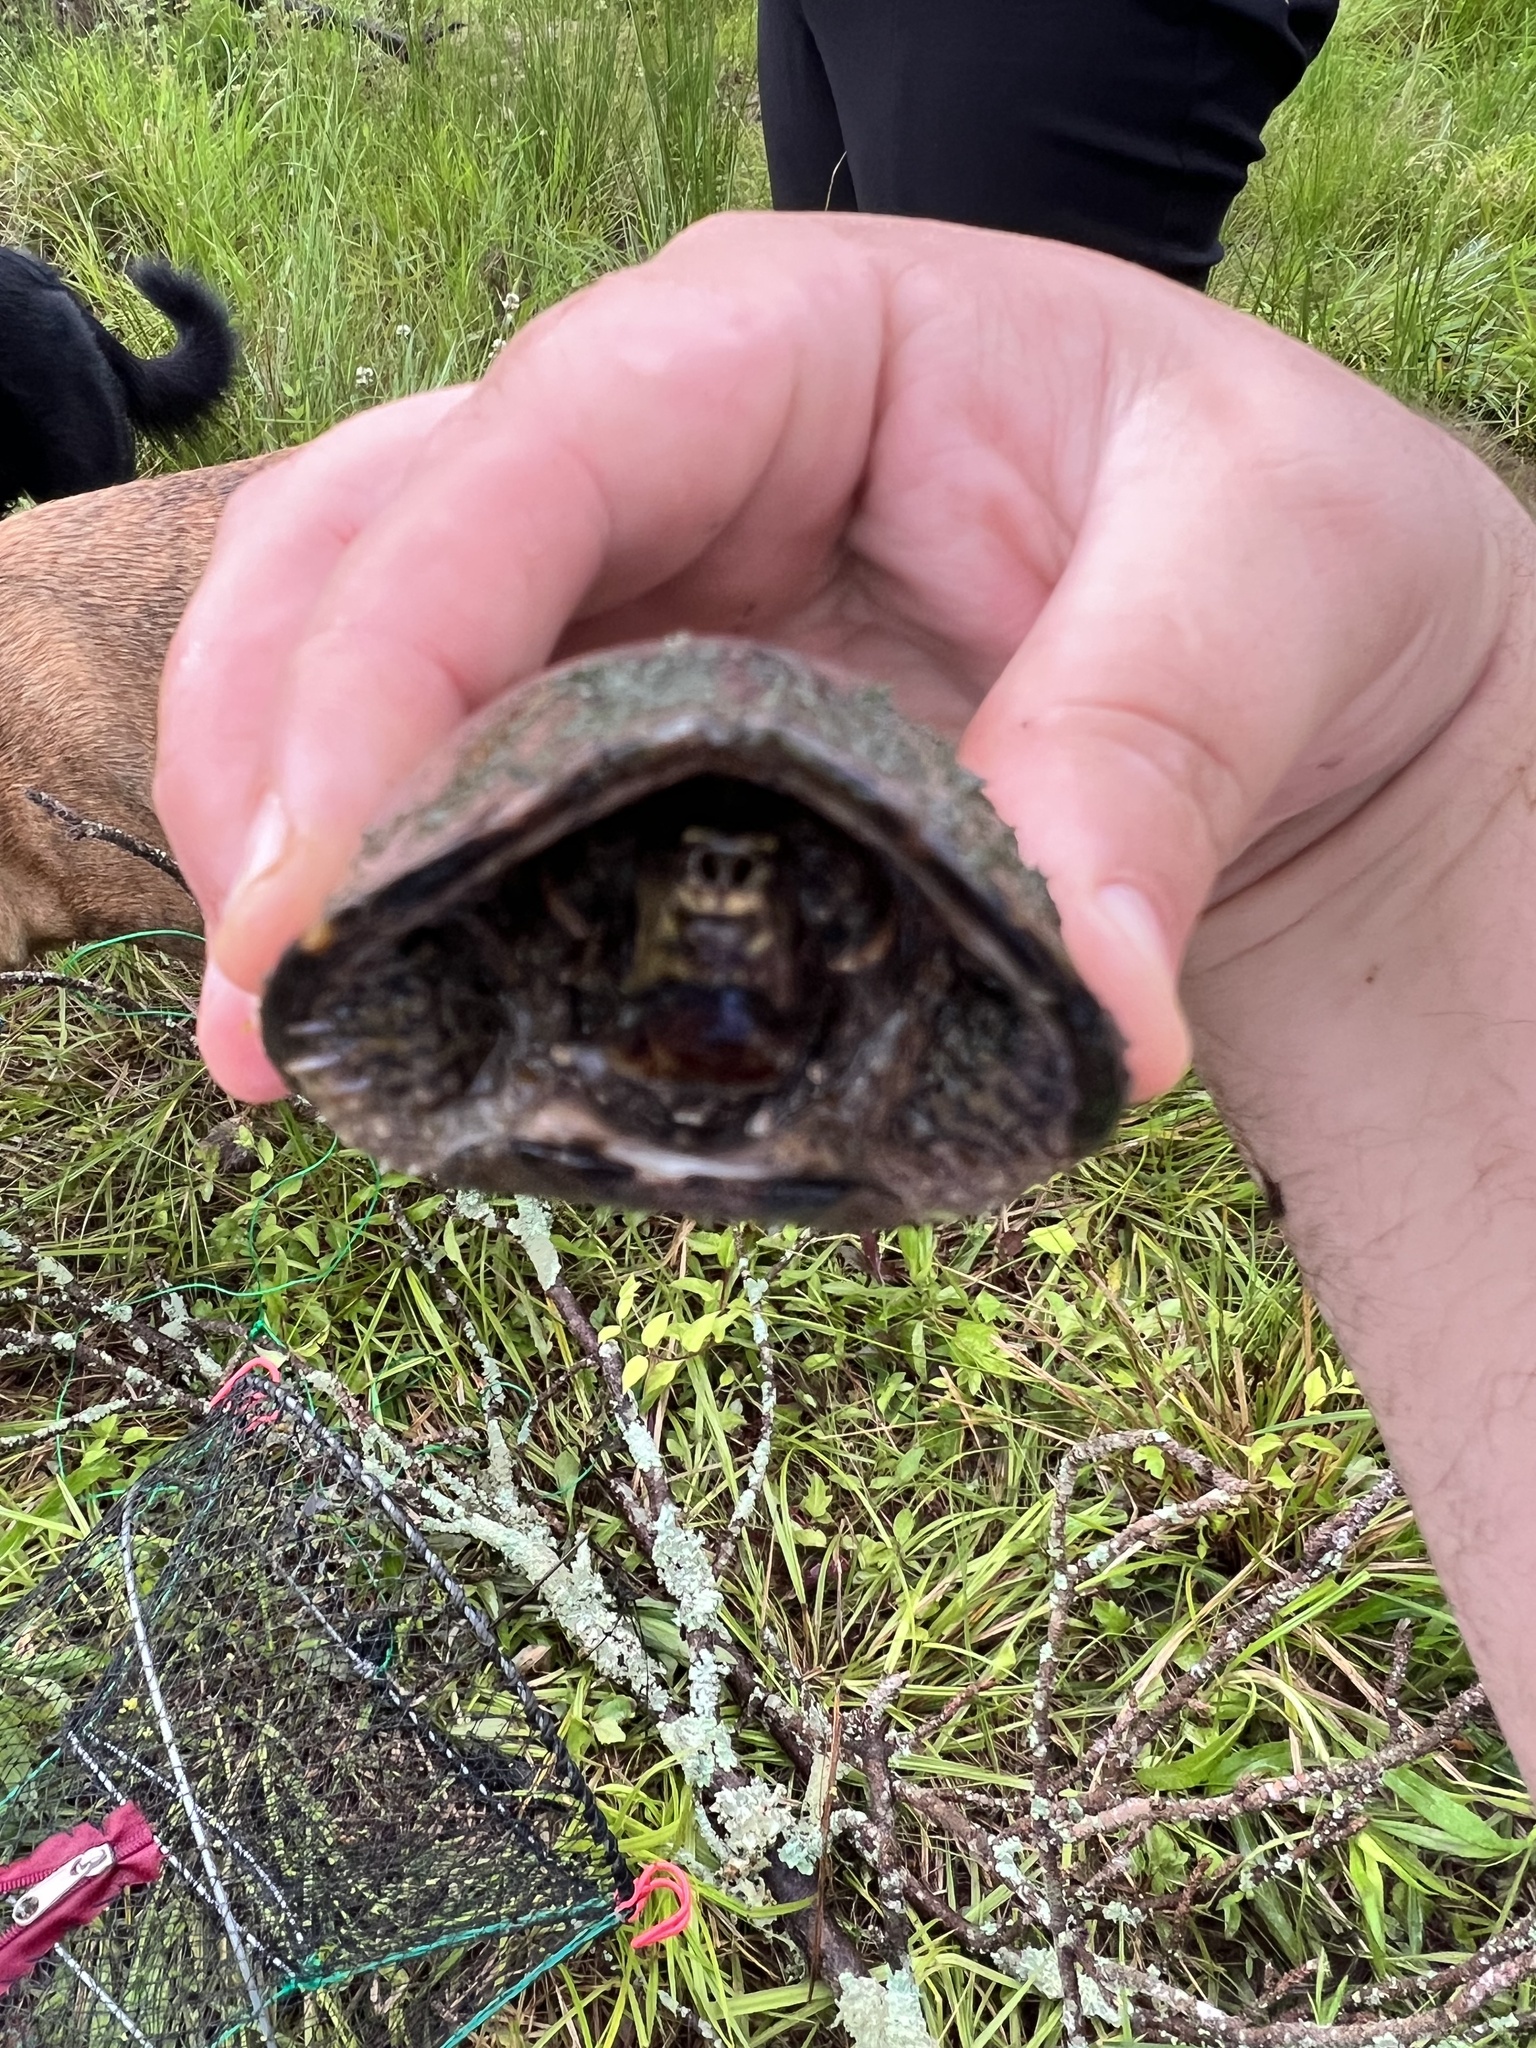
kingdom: Animalia
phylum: Chordata
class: Testudines
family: Kinosternidae
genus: Sternotherus
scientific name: Sternotherus odoratus
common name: Common musk turtle
